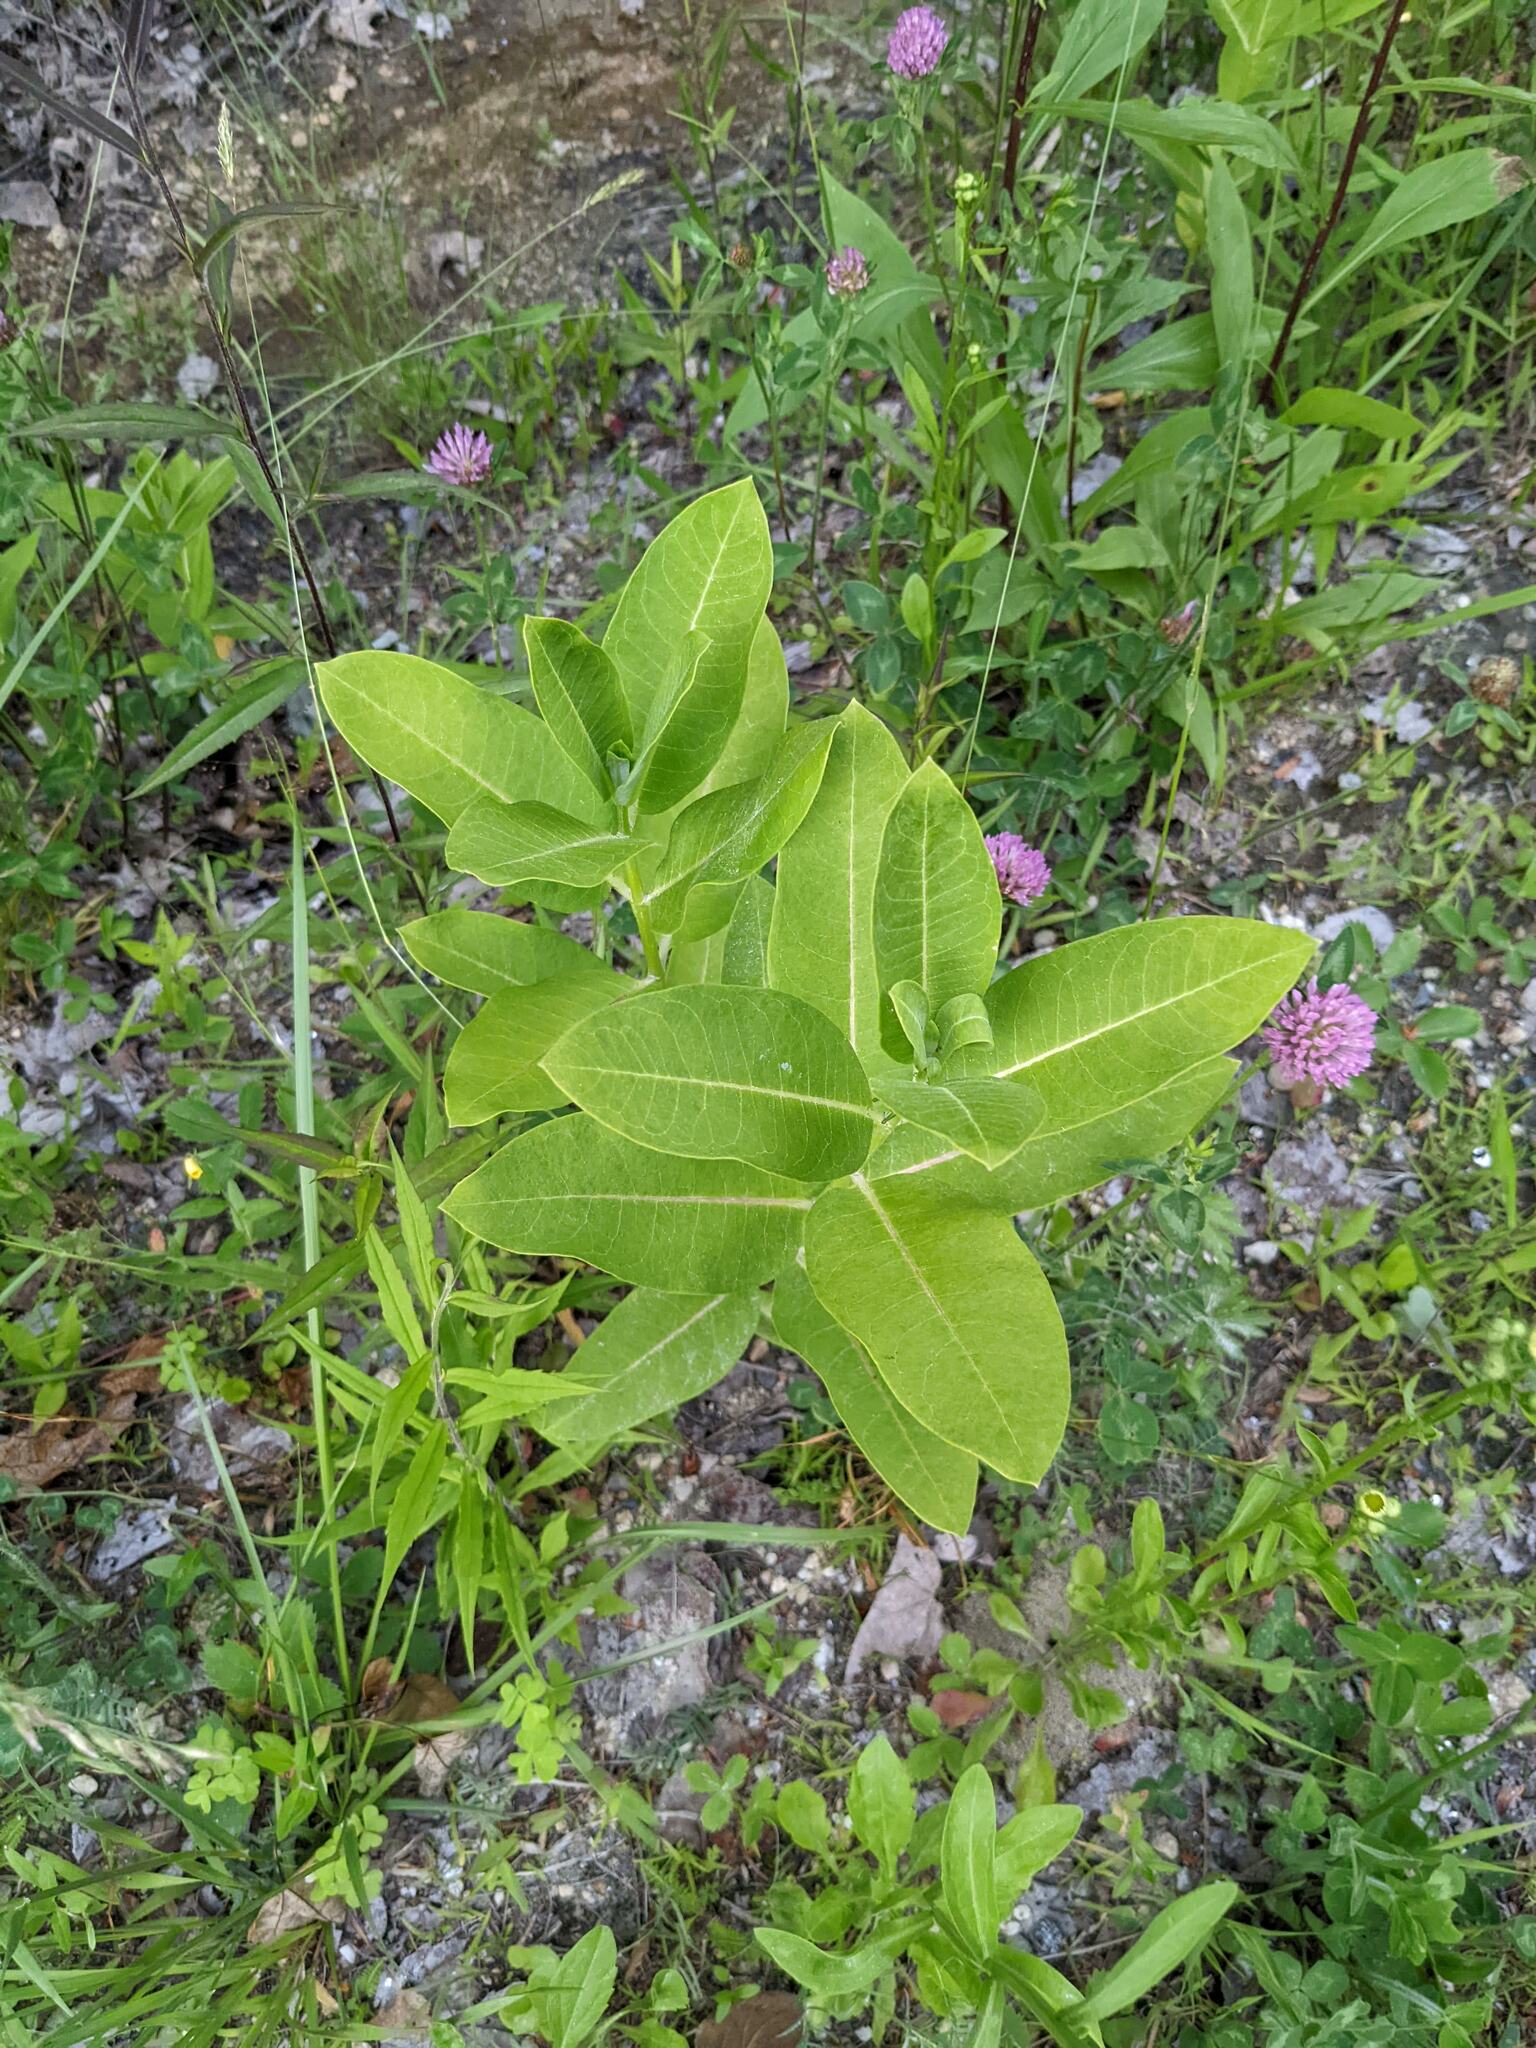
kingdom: Plantae
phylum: Tracheophyta
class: Magnoliopsida
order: Gentianales
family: Apocynaceae
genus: Asclepias
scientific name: Asclepias syriaca
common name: Common milkweed
